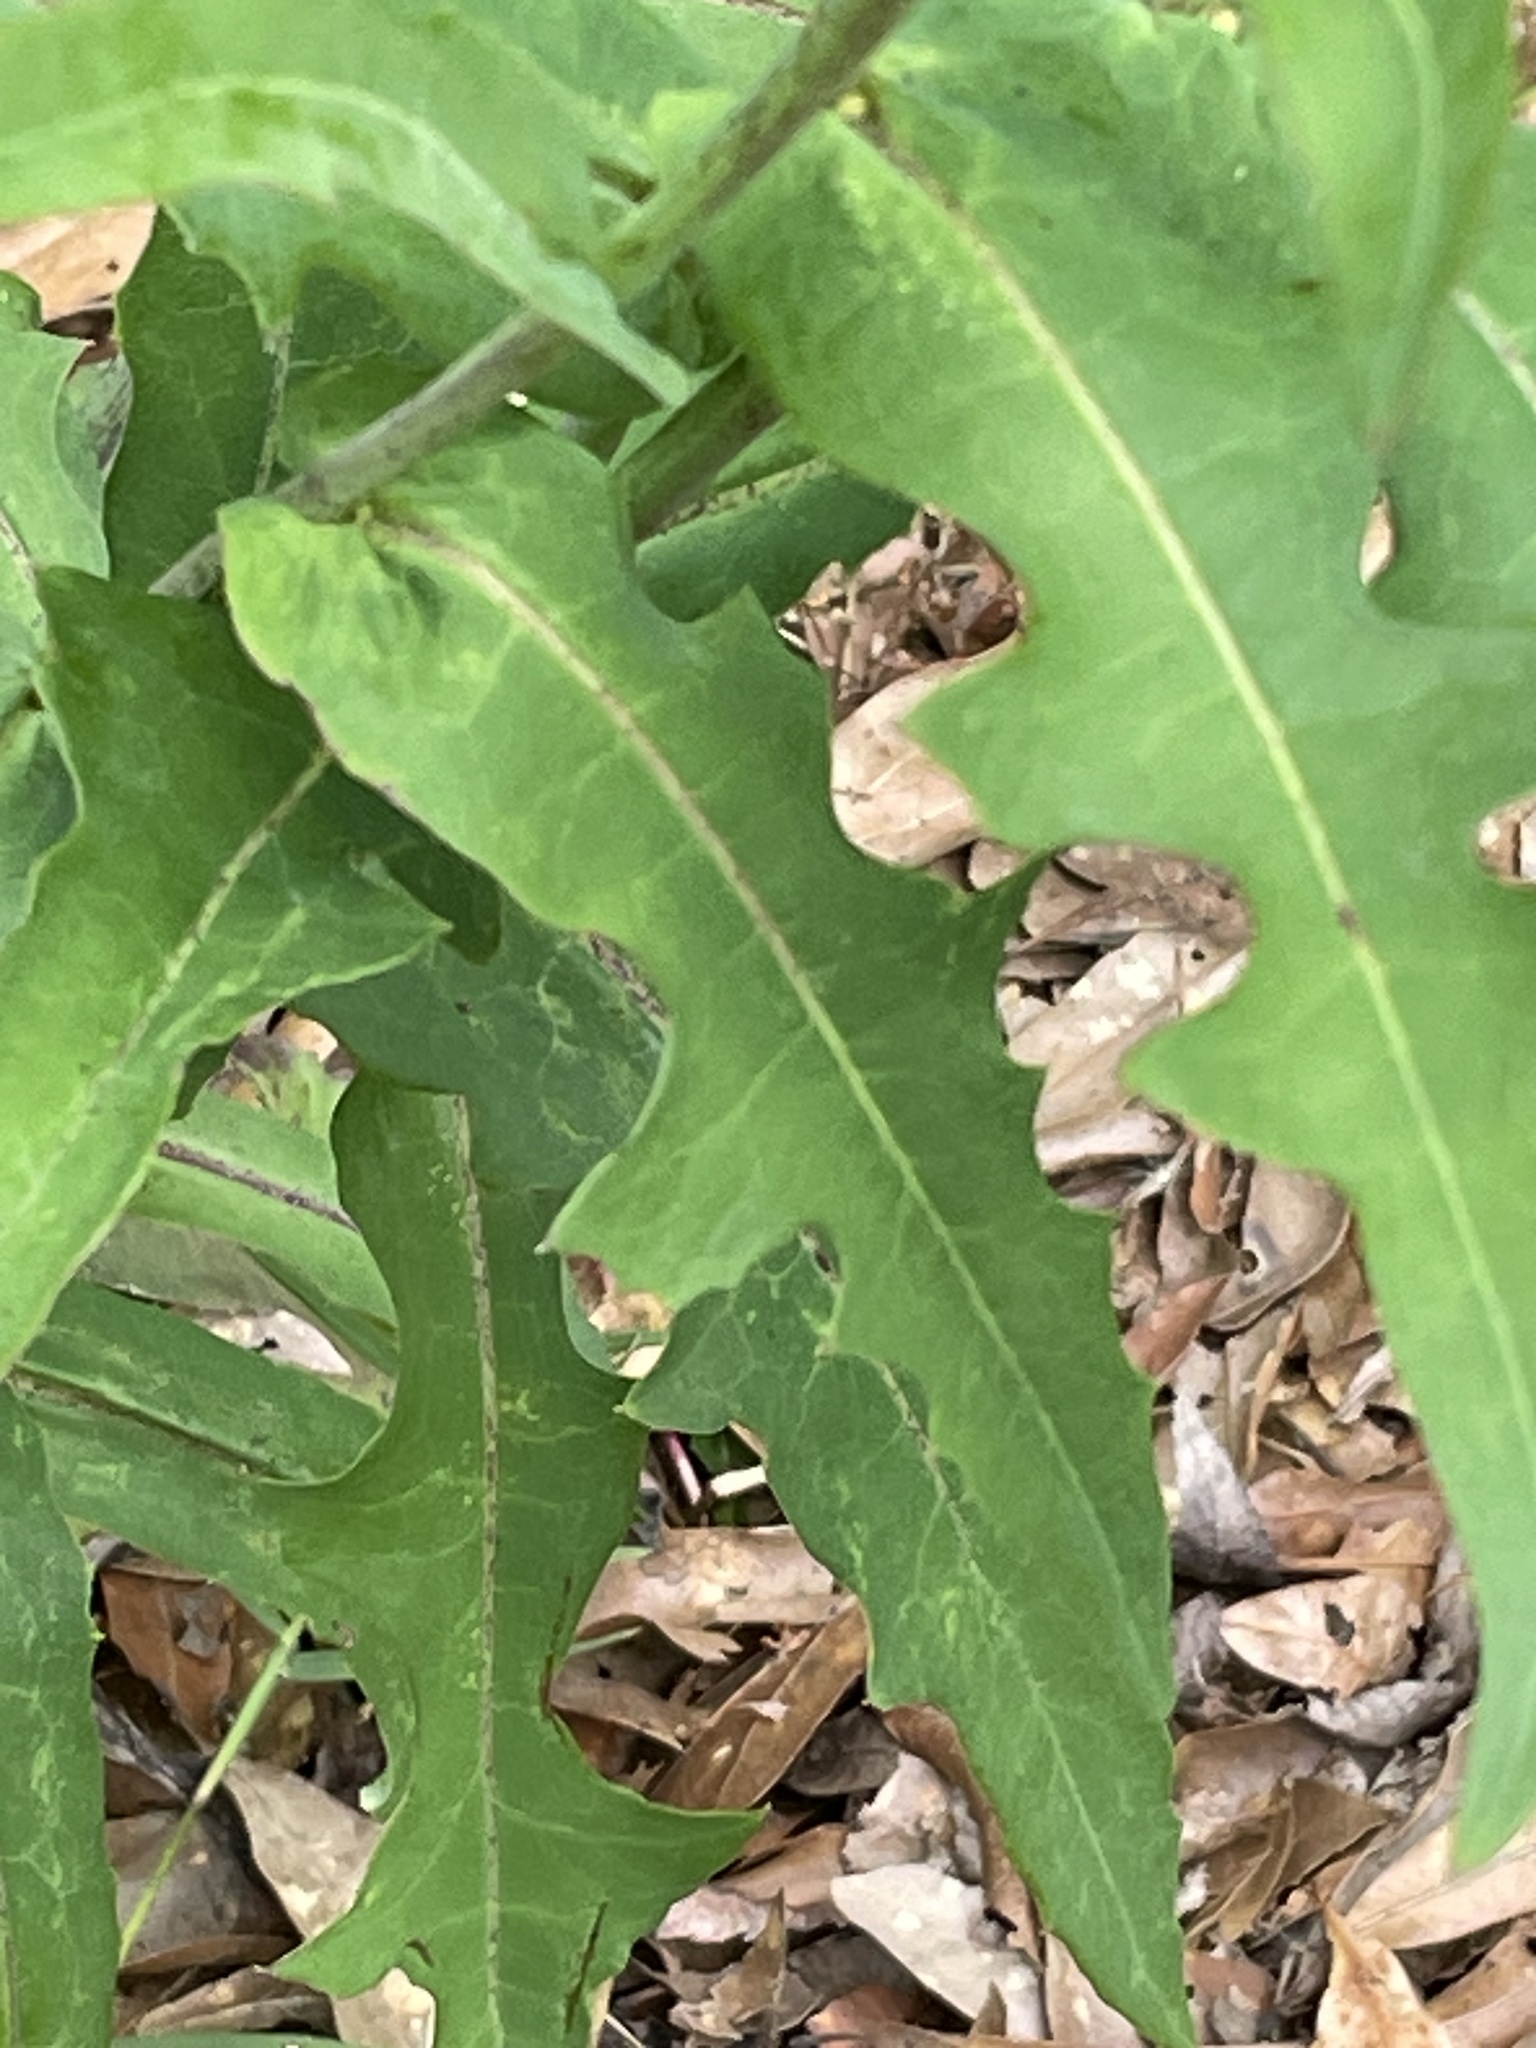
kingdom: Plantae
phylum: Tracheophyta
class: Magnoliopsida
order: Asterales
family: Asteraceae
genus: Lactuca
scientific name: Lactuca canadensis
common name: Canada lettuce
